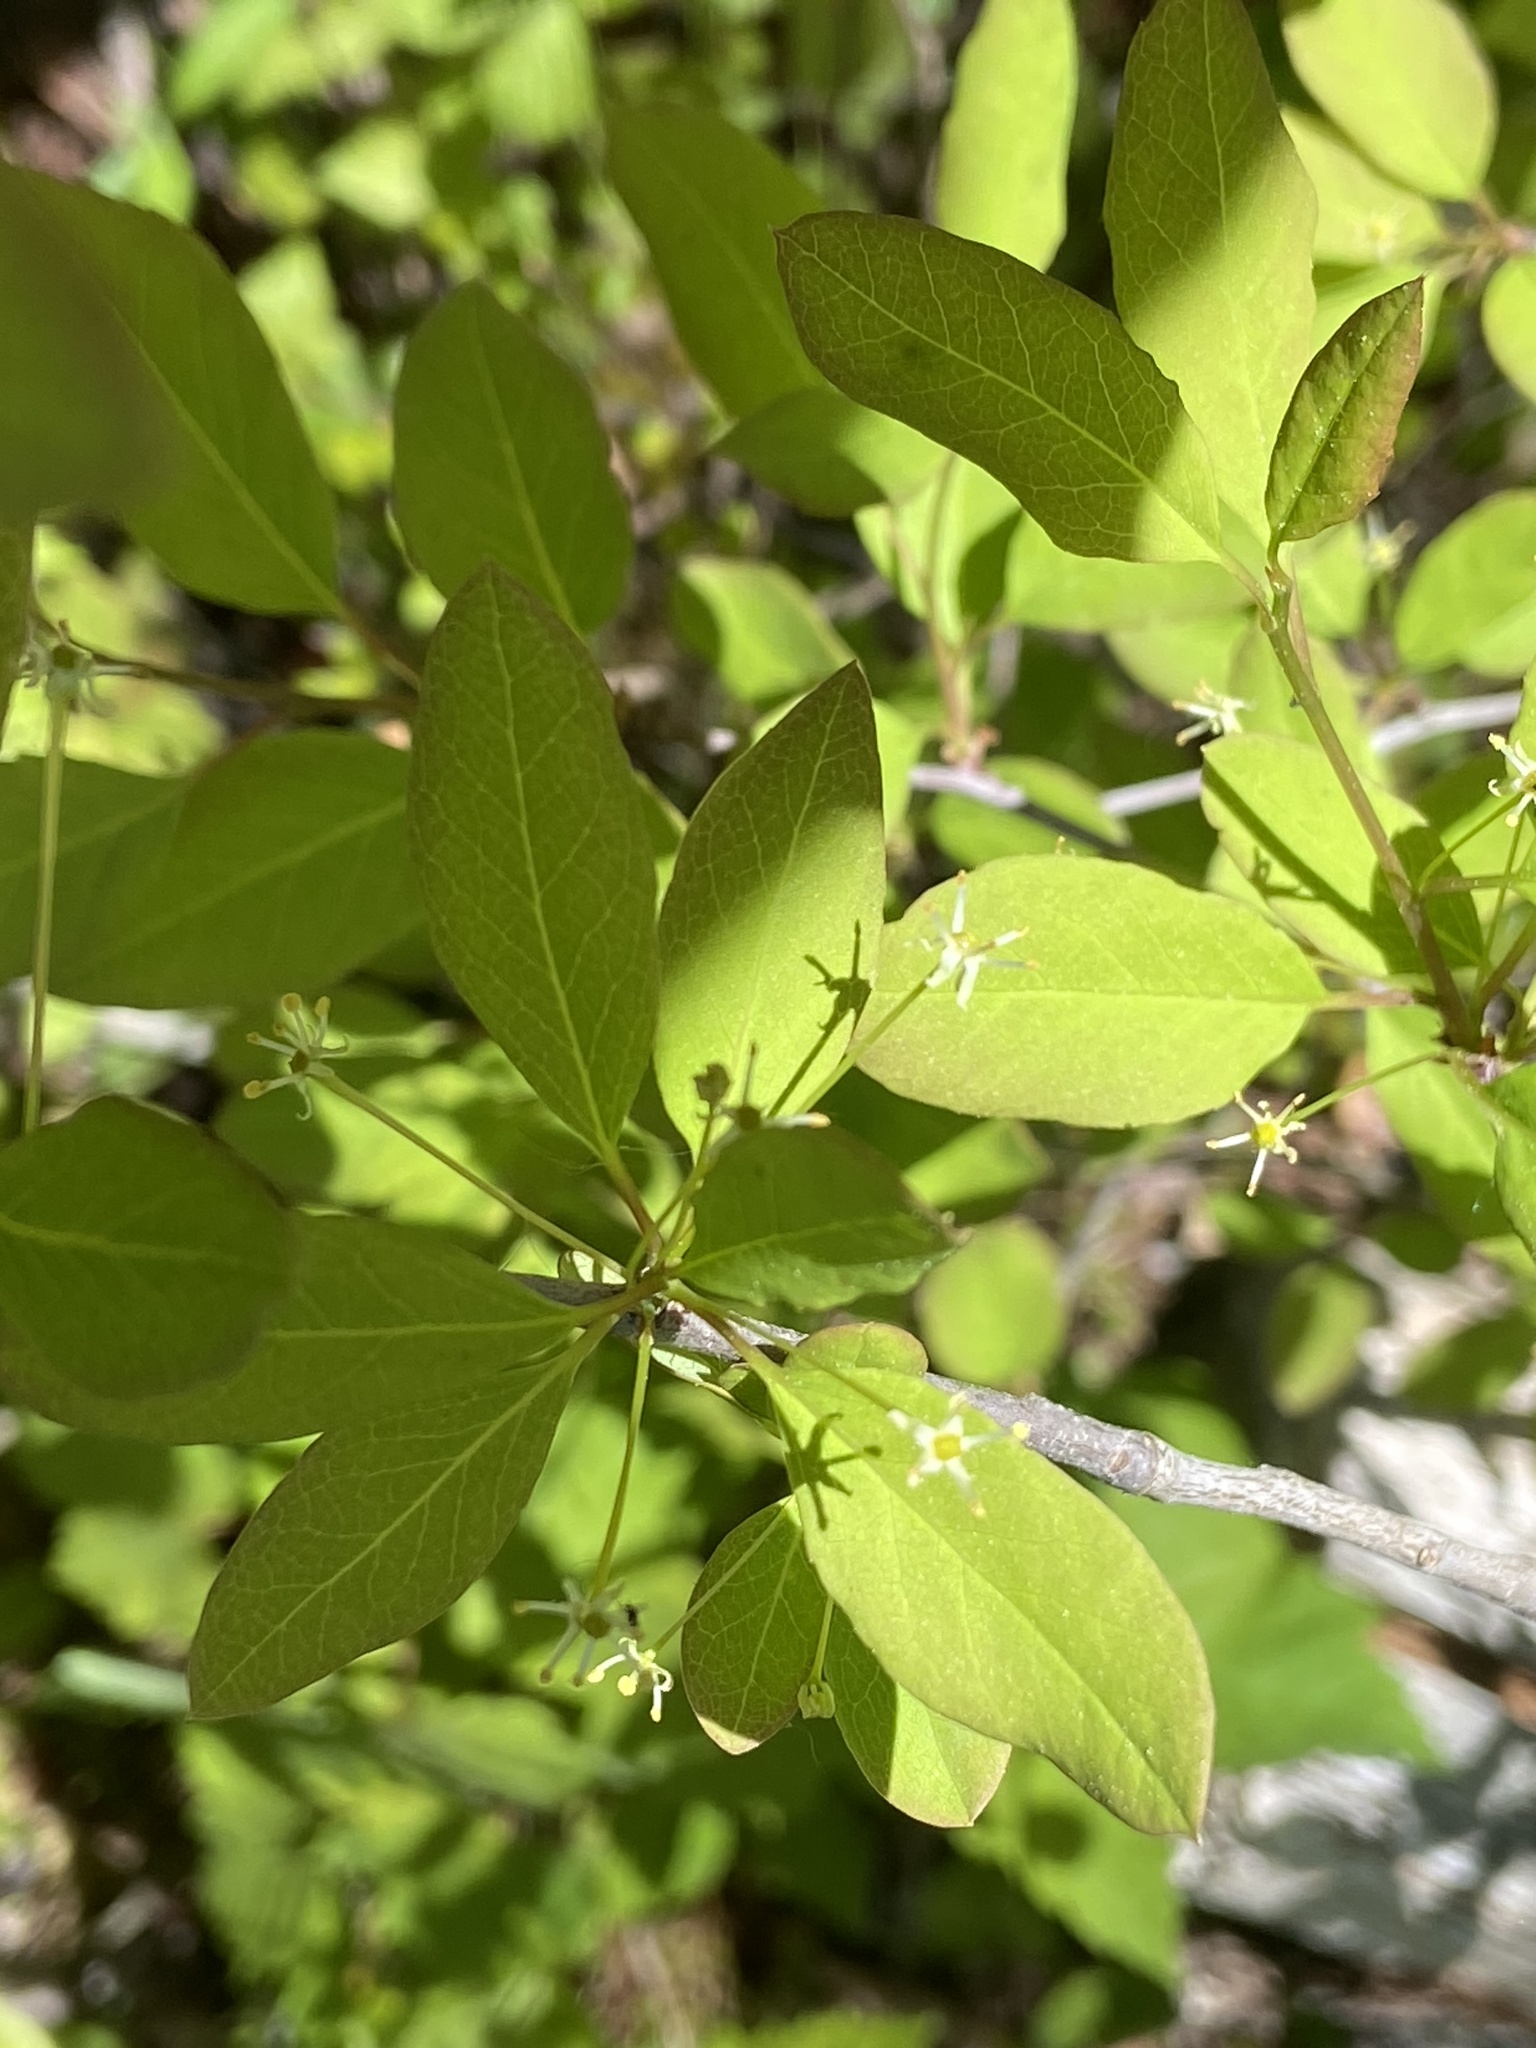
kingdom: Plantae
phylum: Tracheophyta
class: Magnoliopsida
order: Aquifoliales
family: Aquifoliaceae
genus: Ilex
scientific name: Ilex mucronata
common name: Catberry
